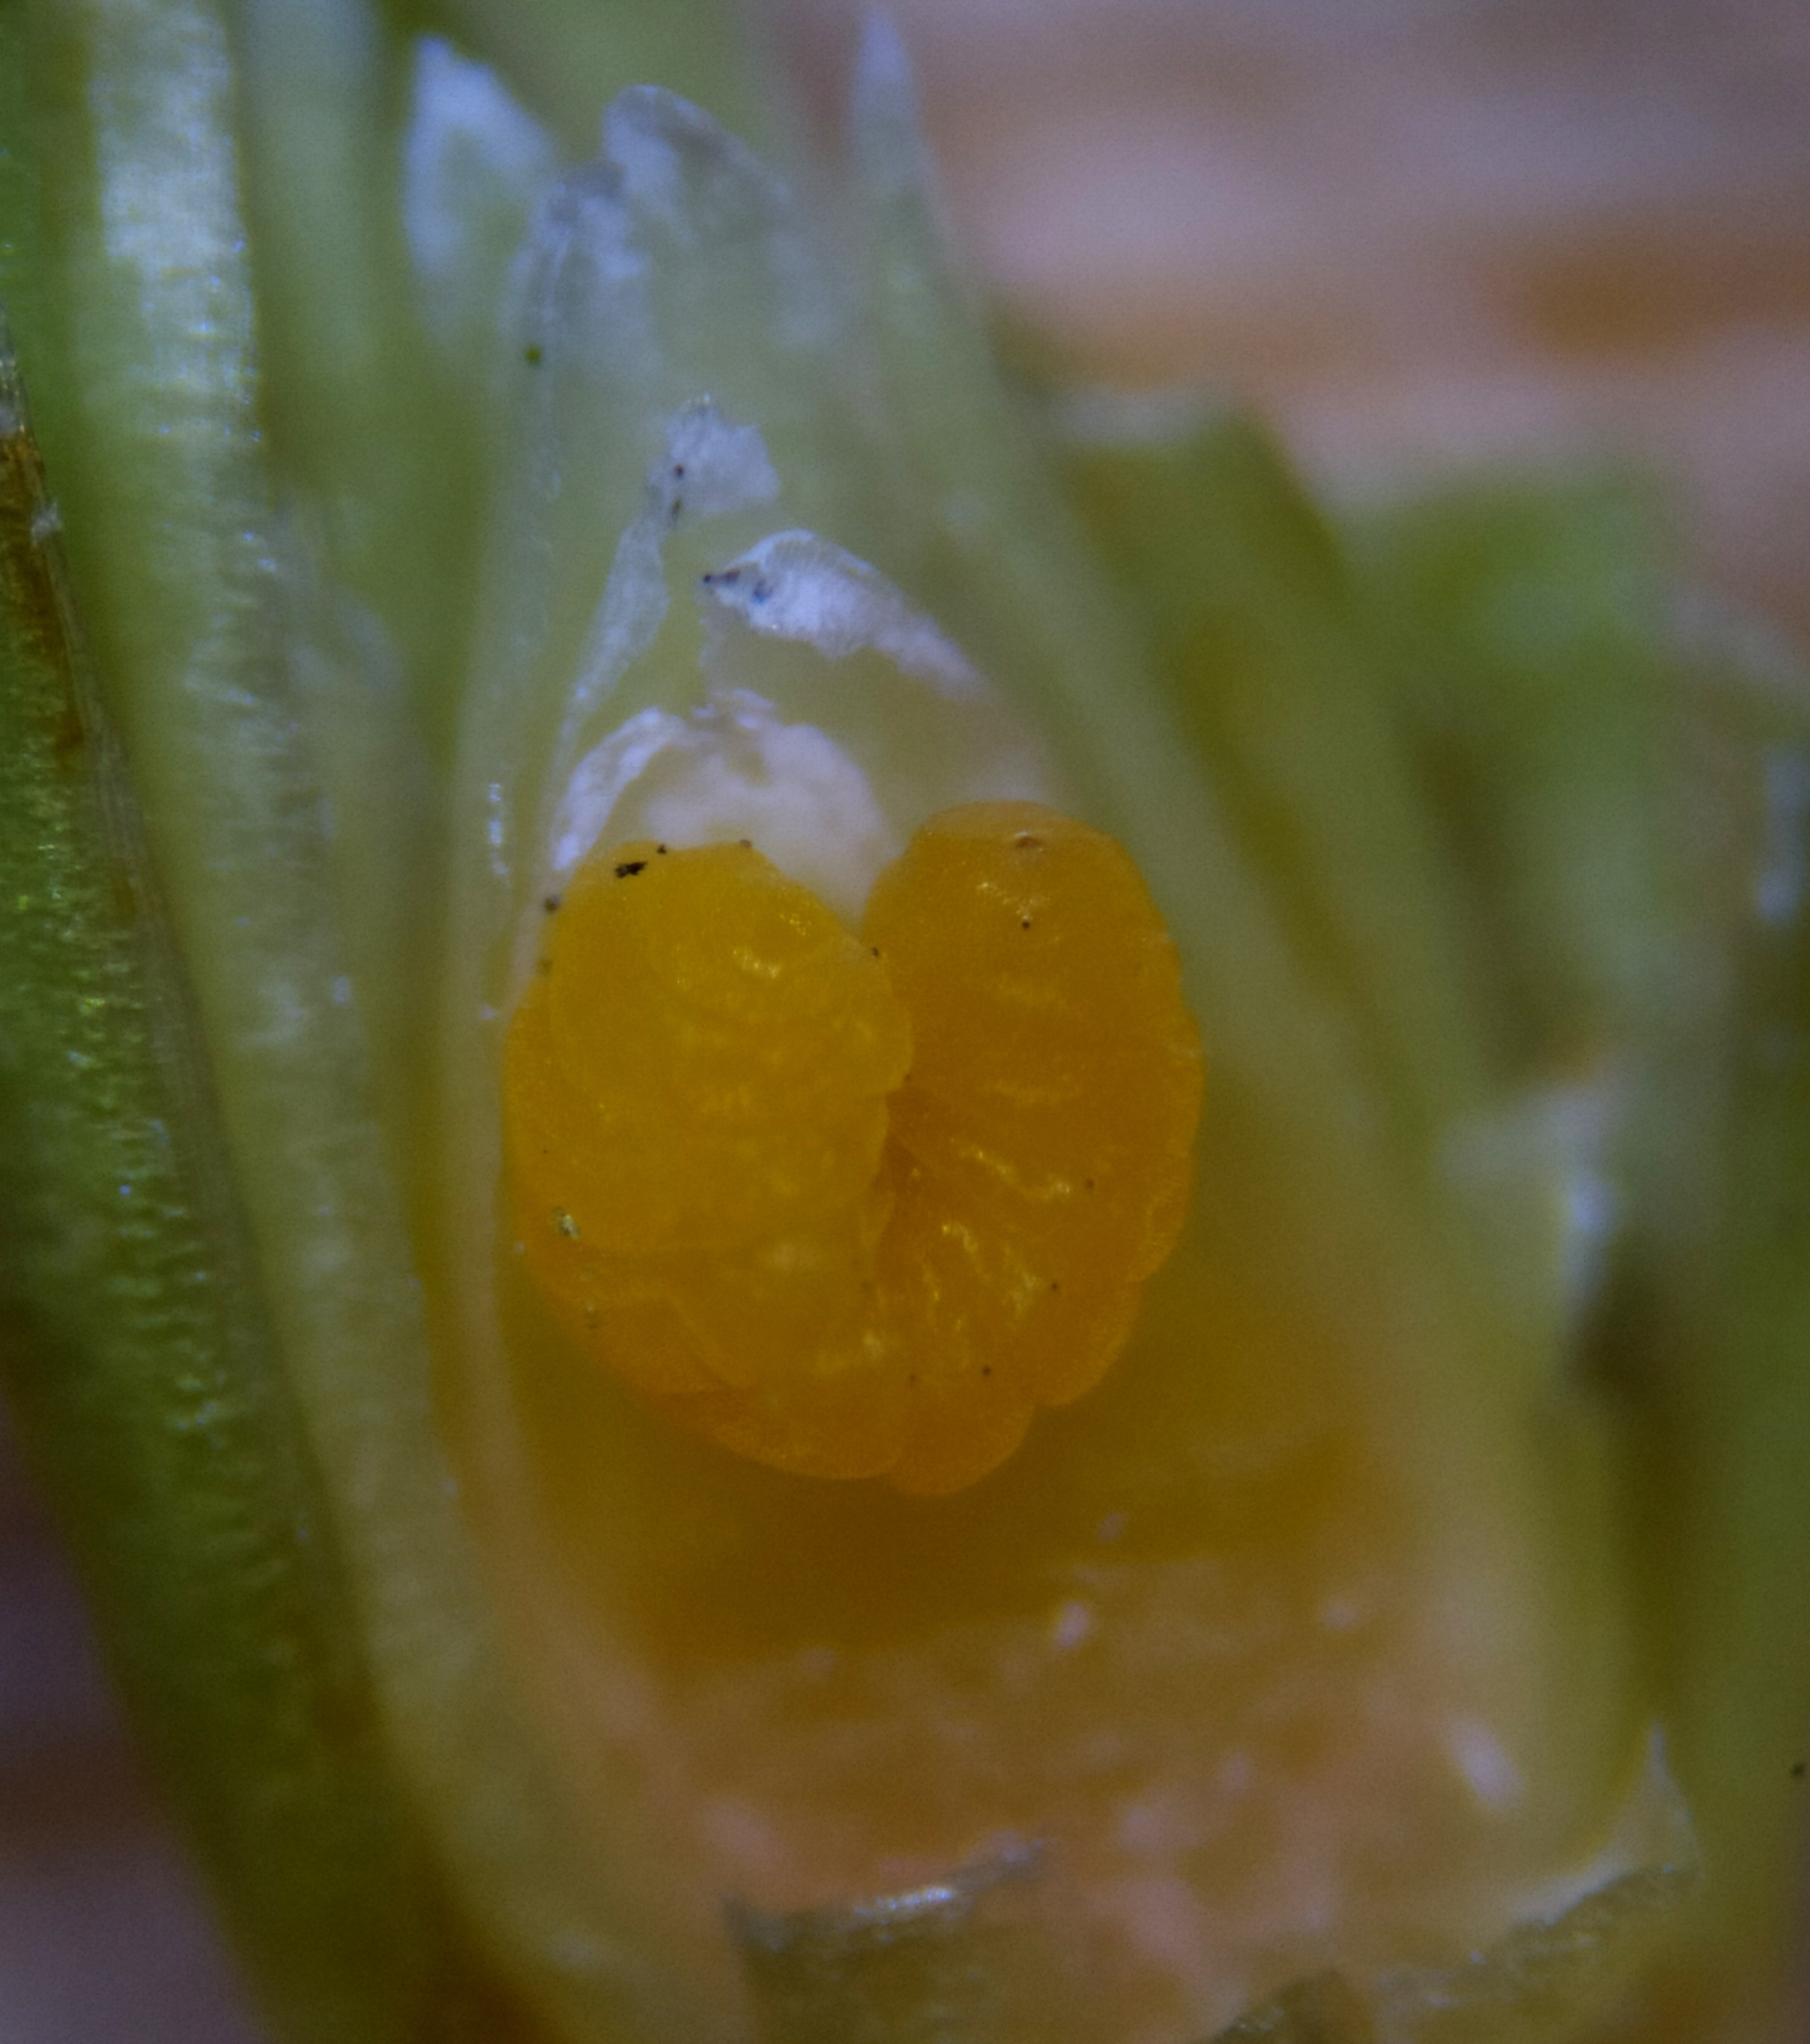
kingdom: Animalia
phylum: Arthropoda
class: Insecta
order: Diptera
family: Cecidomyiidae
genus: Taxomyia
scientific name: Taxomyia taxi
